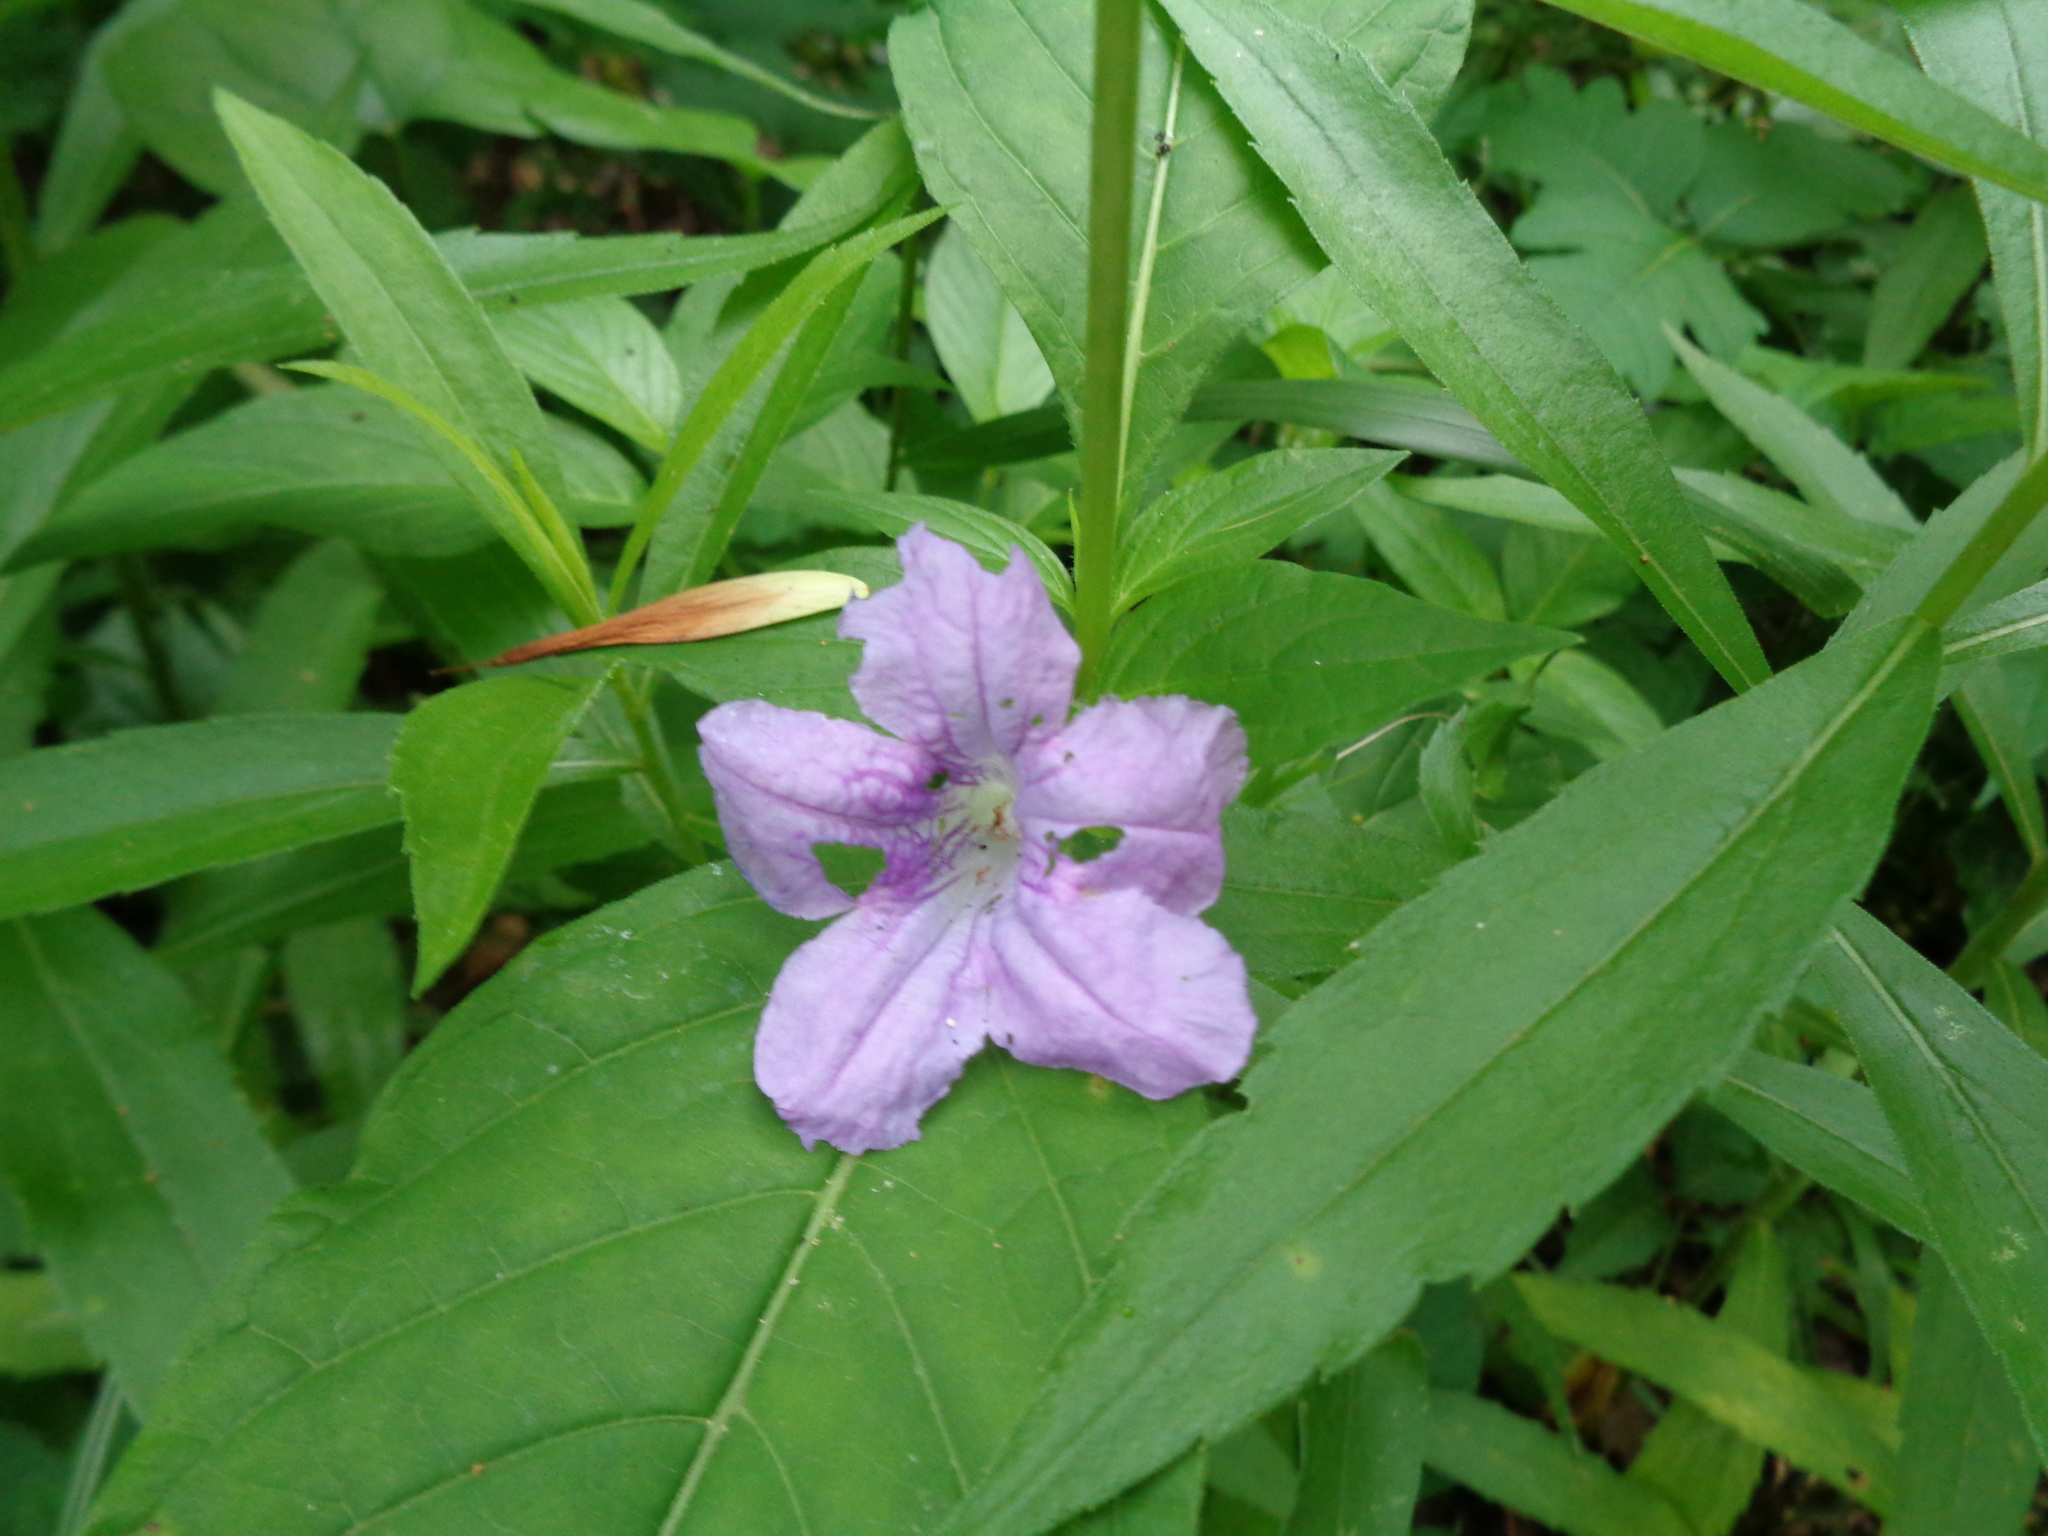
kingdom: Plantae
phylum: Tracheophyta
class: Magnoliopsida
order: Lamiales
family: Acanthaceae
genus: Ruellia
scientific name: Ruellia strepens
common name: Limestone wild petunia
